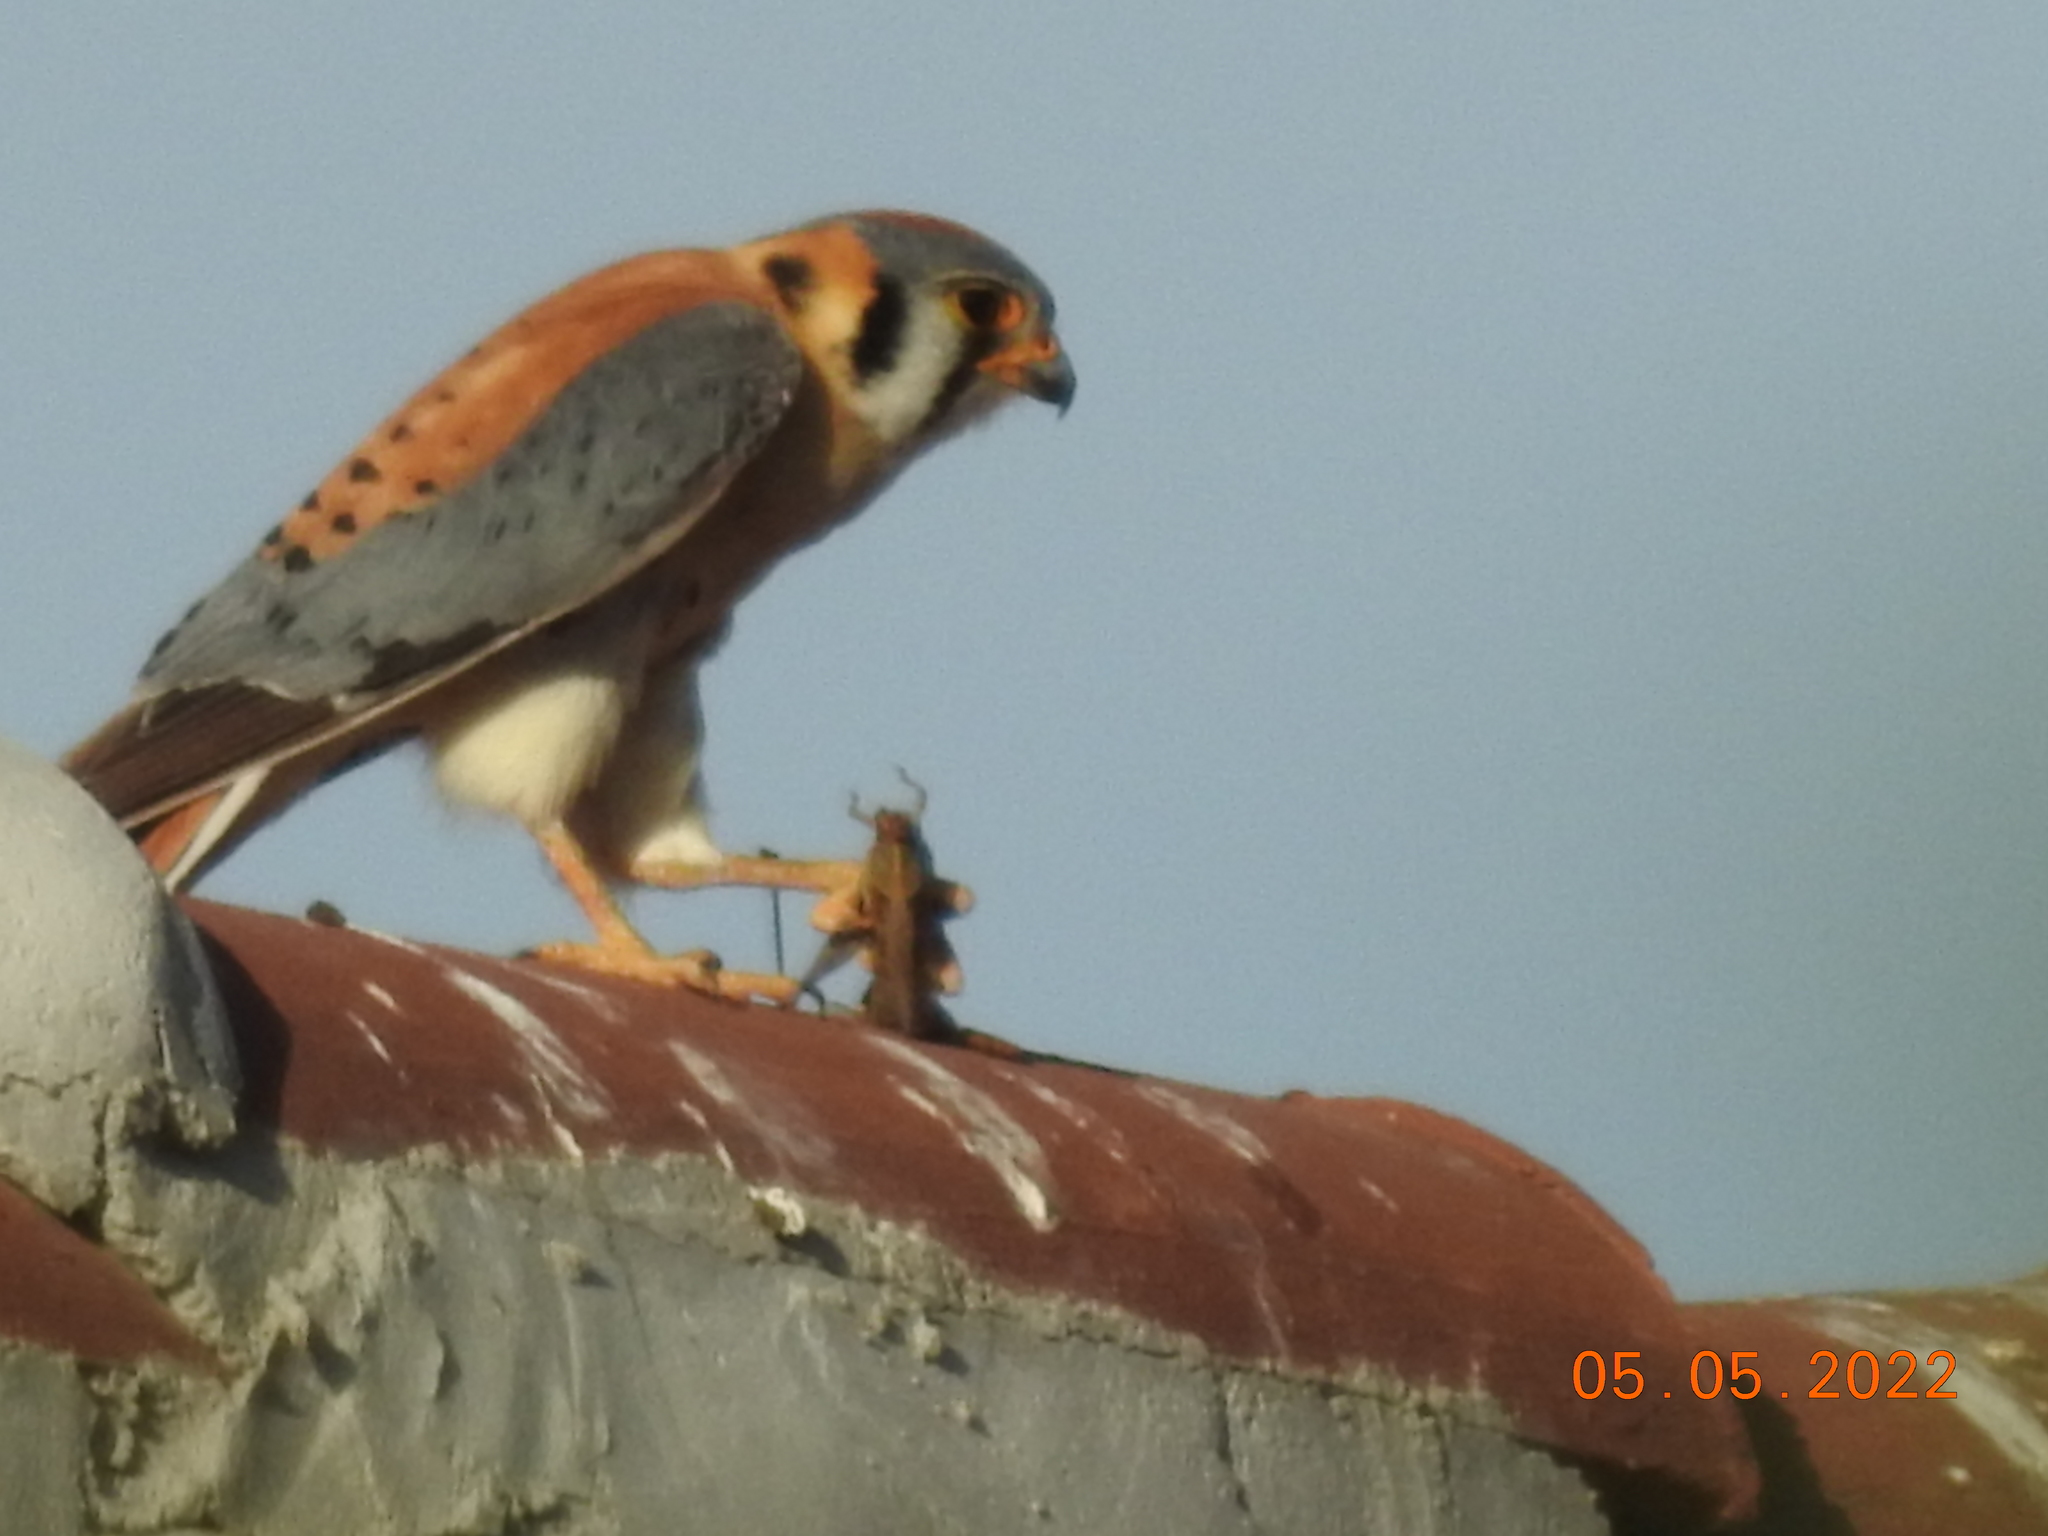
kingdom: Animalia
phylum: Chordata
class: Aves
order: Falconiformes
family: Falconidae
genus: Falco
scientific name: Falco sparverius
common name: American kestrel
